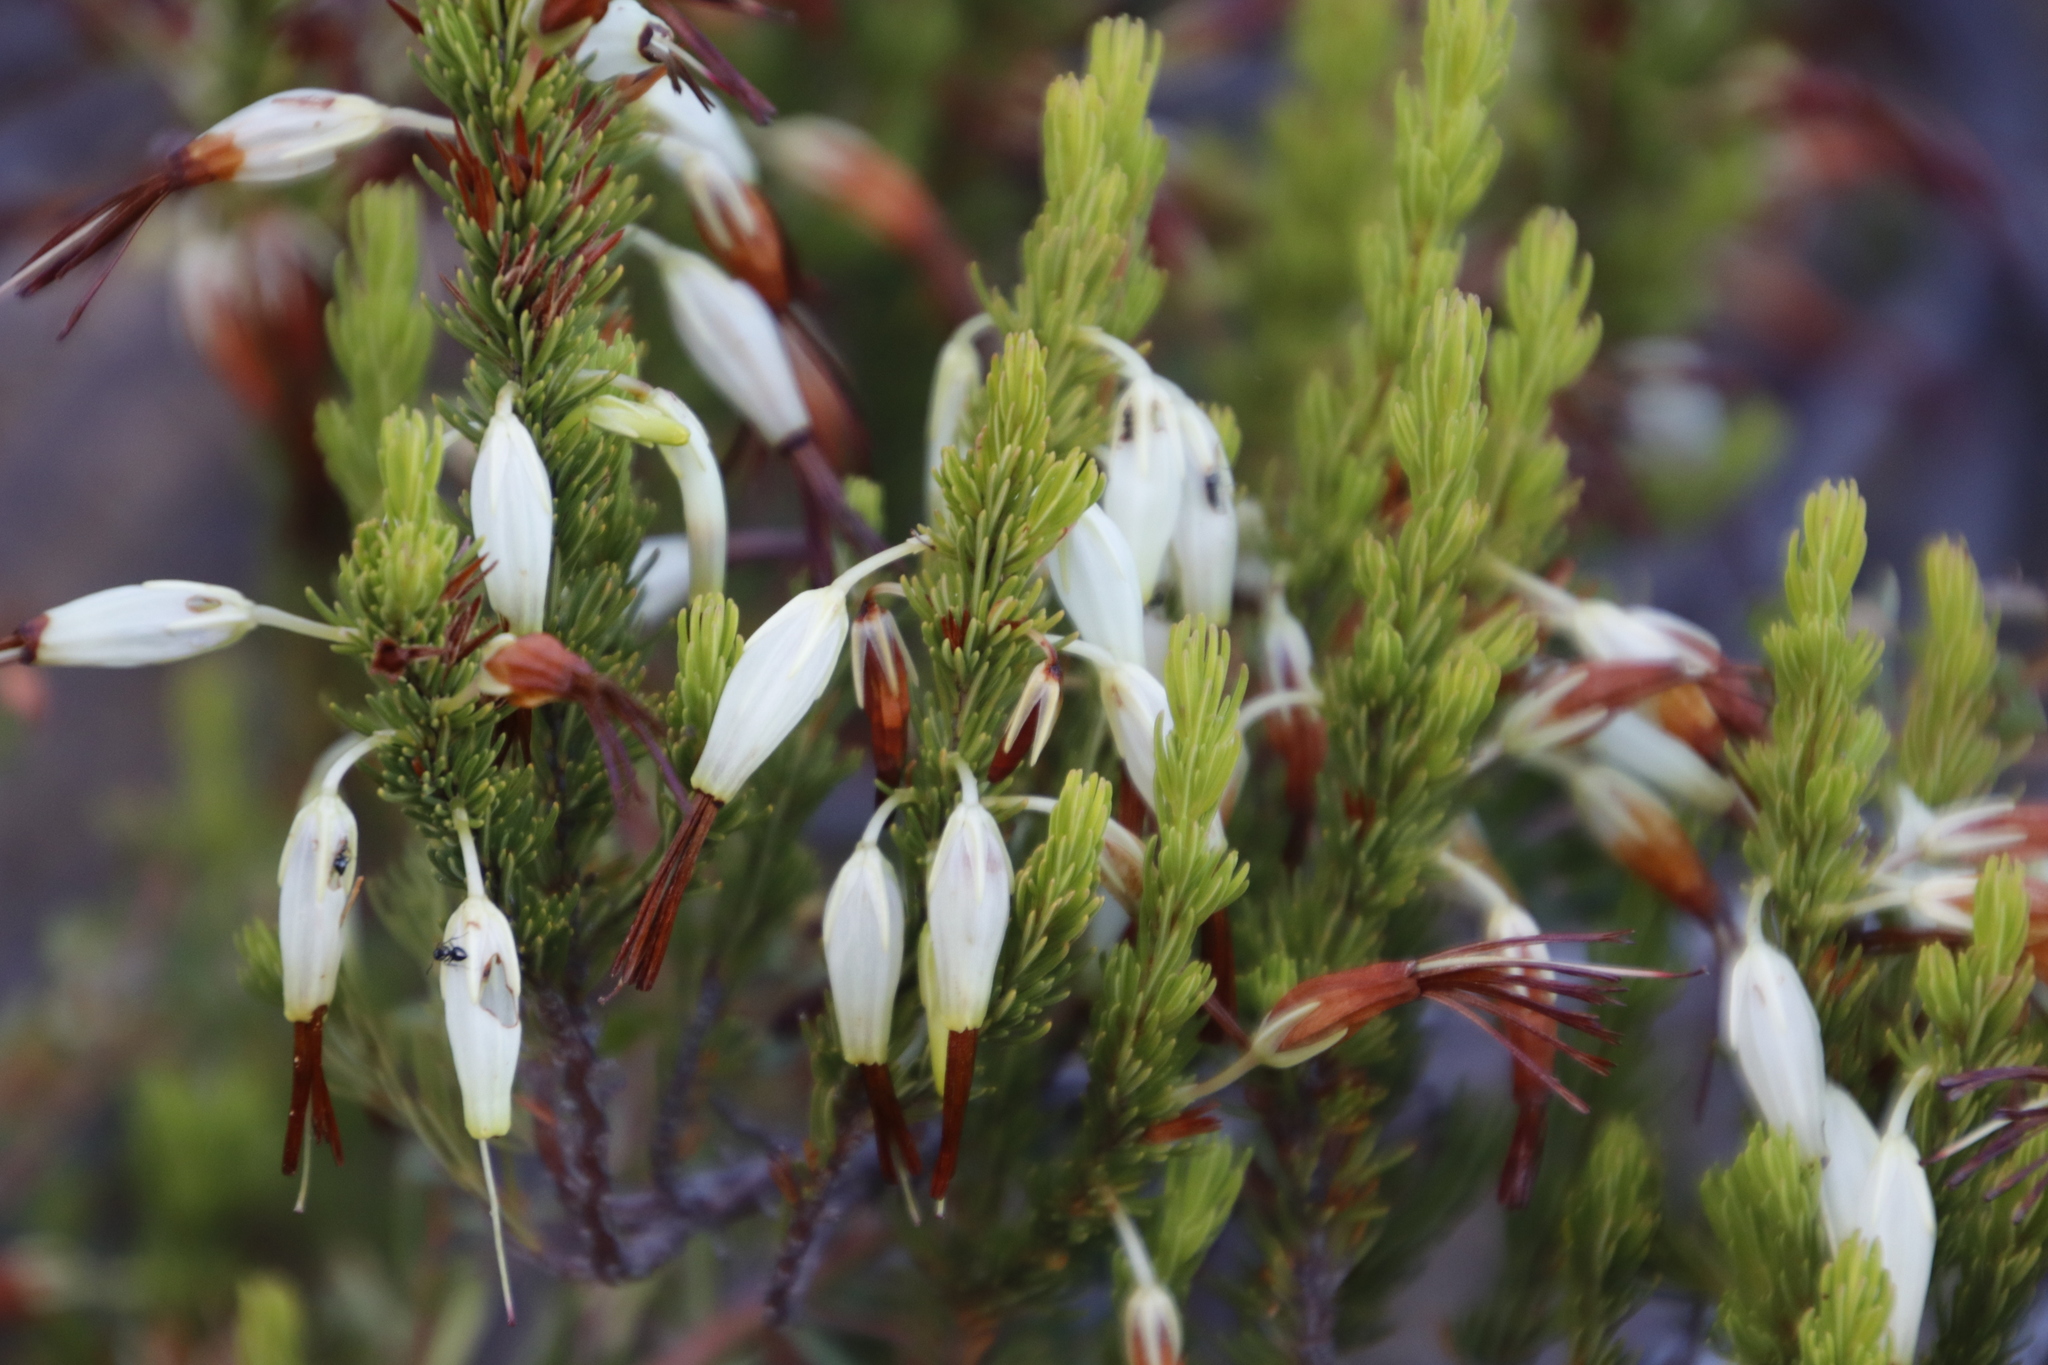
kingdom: Plantae
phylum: Tracheophyta
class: Magnoliopsida
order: Ericales
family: Ericaceae
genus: Erica
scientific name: Erica plukenetii
